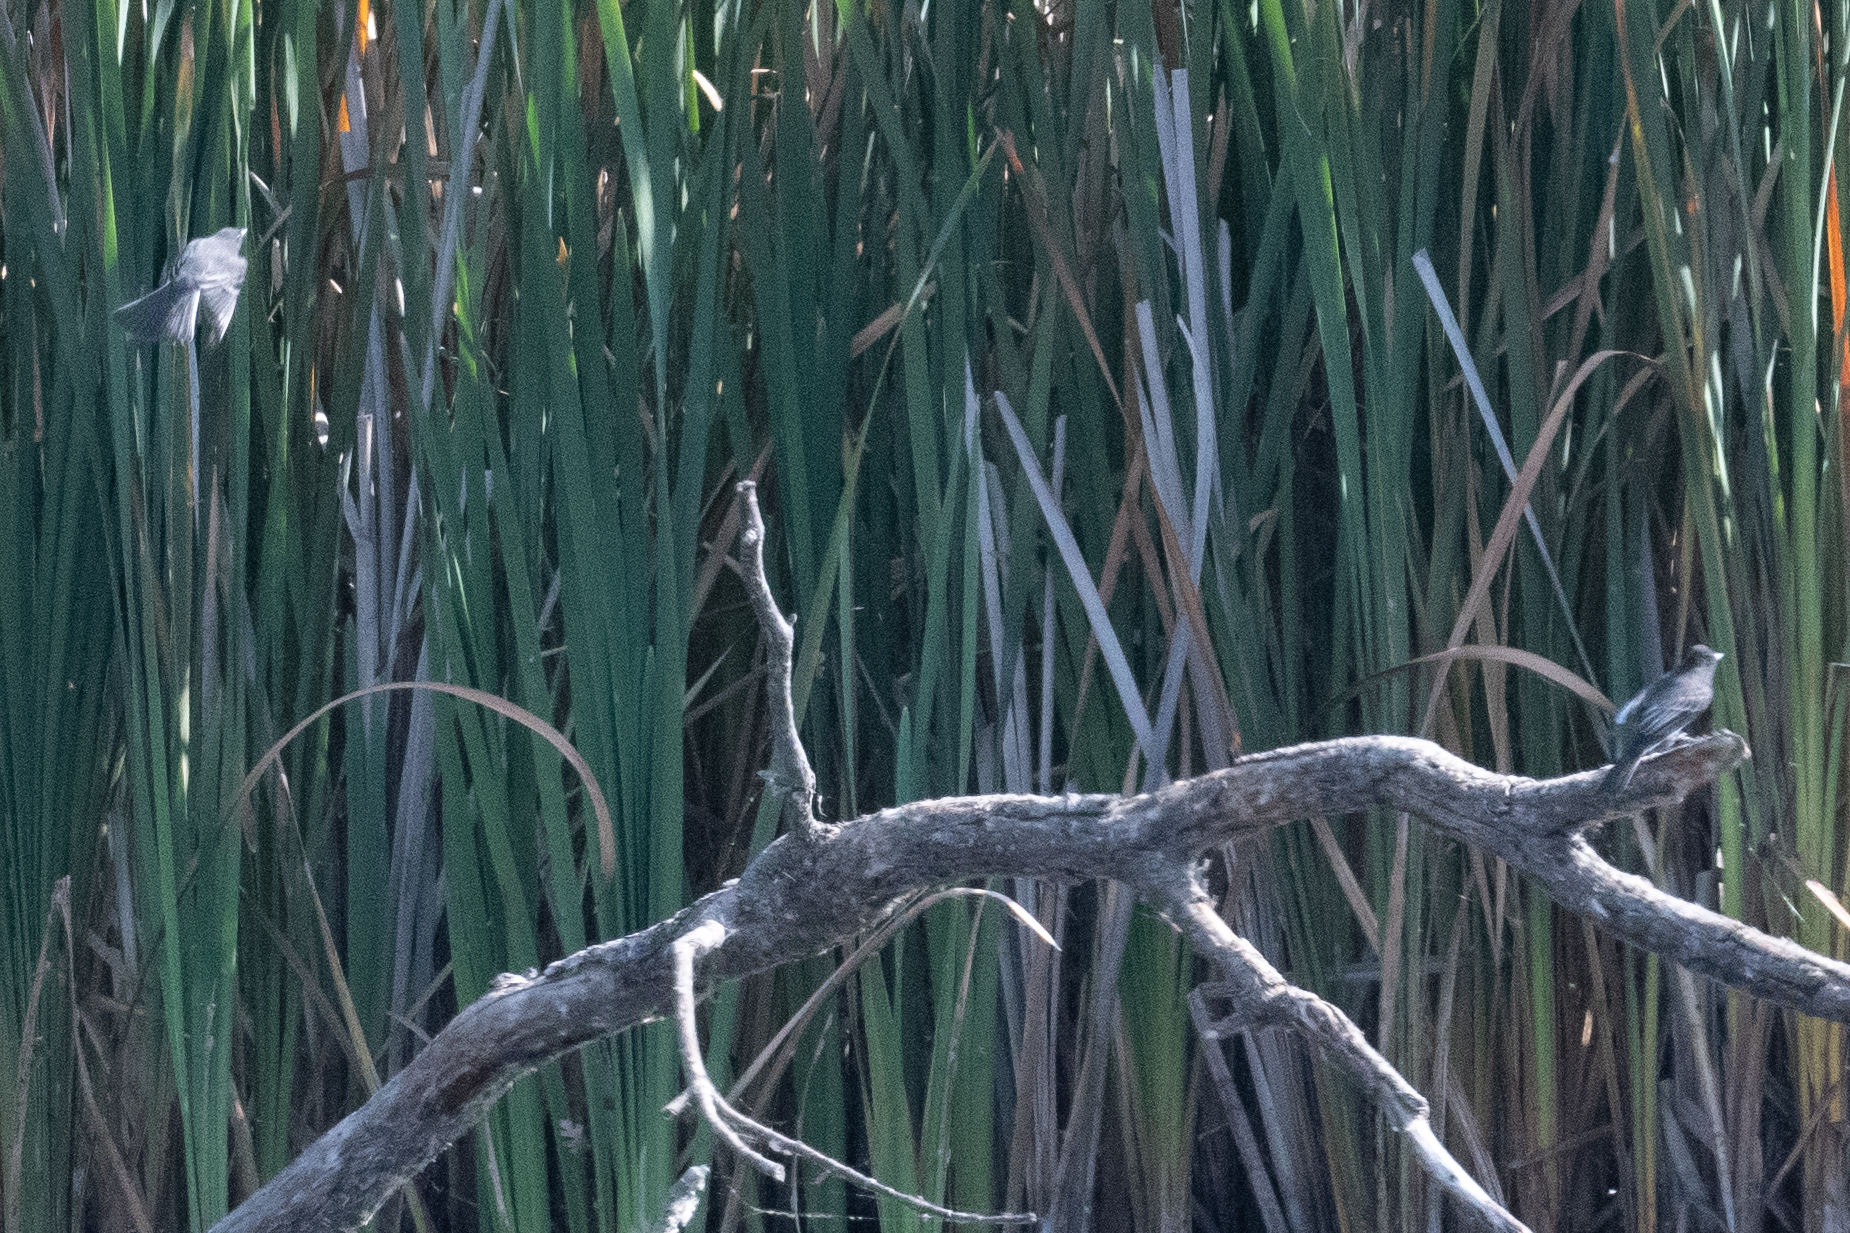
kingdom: Animalia
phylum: Chordata
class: Aves
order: Passeriformes
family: Tyrannidae
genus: Sayornis
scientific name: Sayornis nigricans
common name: Black phoebe
